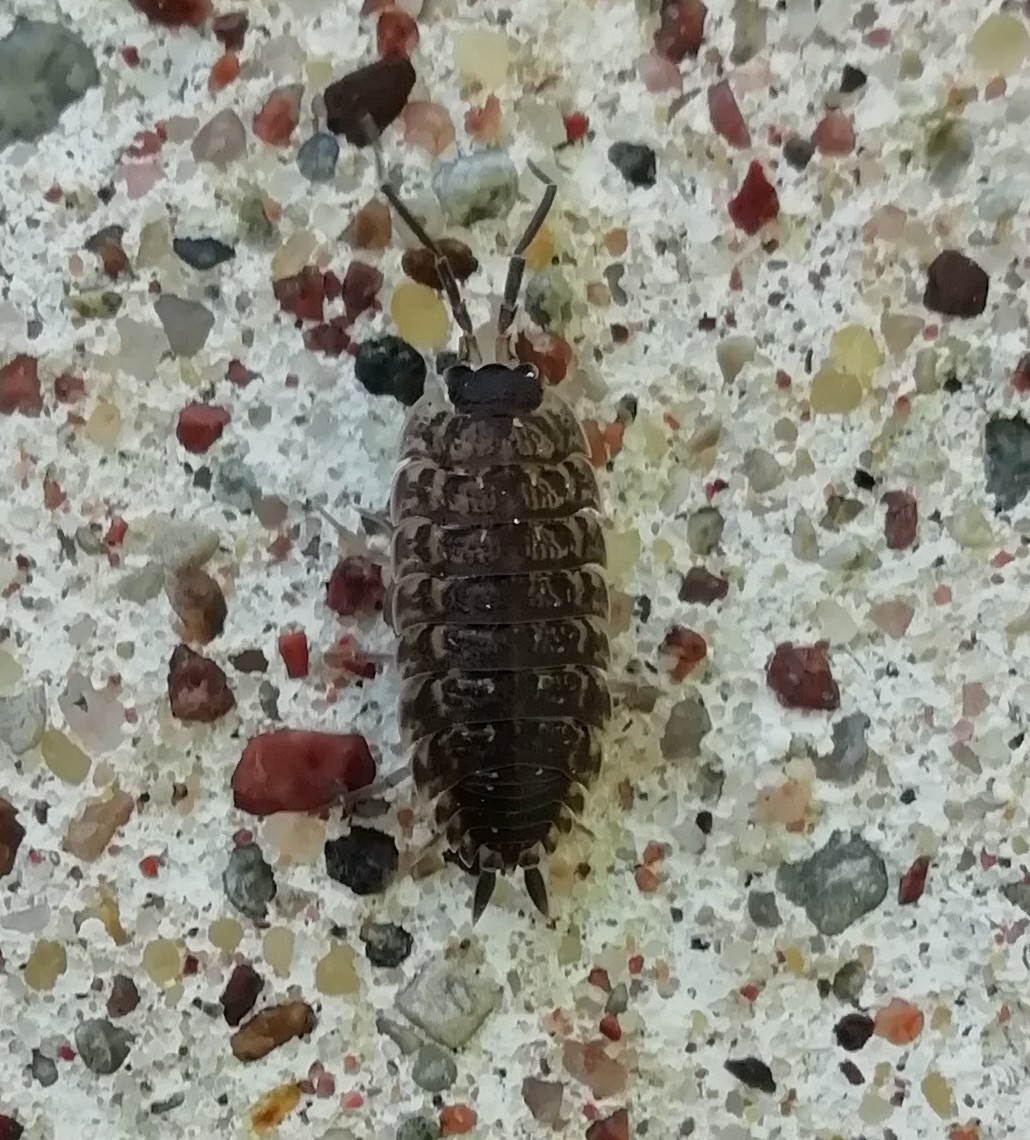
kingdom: Animalia
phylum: Arthropoda
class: Malacostraca
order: Isopoda
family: Porcellionidae
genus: Porcellio
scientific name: Porcellio spinicornis
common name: Painted woodlouse
